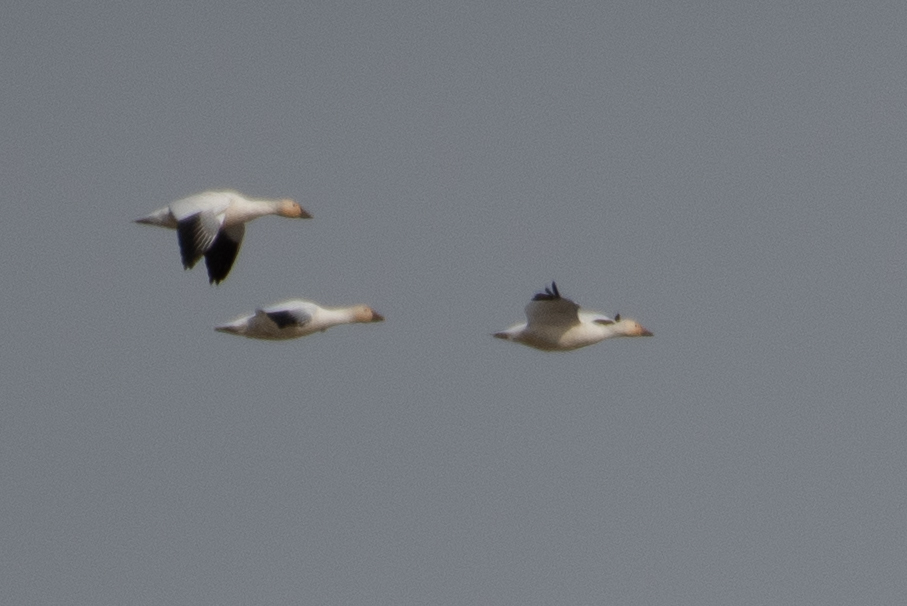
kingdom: Animalia
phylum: Chordata
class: Aves
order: Anseriformes
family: Anatidae
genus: Anser
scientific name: Anser caerulescens
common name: Snow goose
